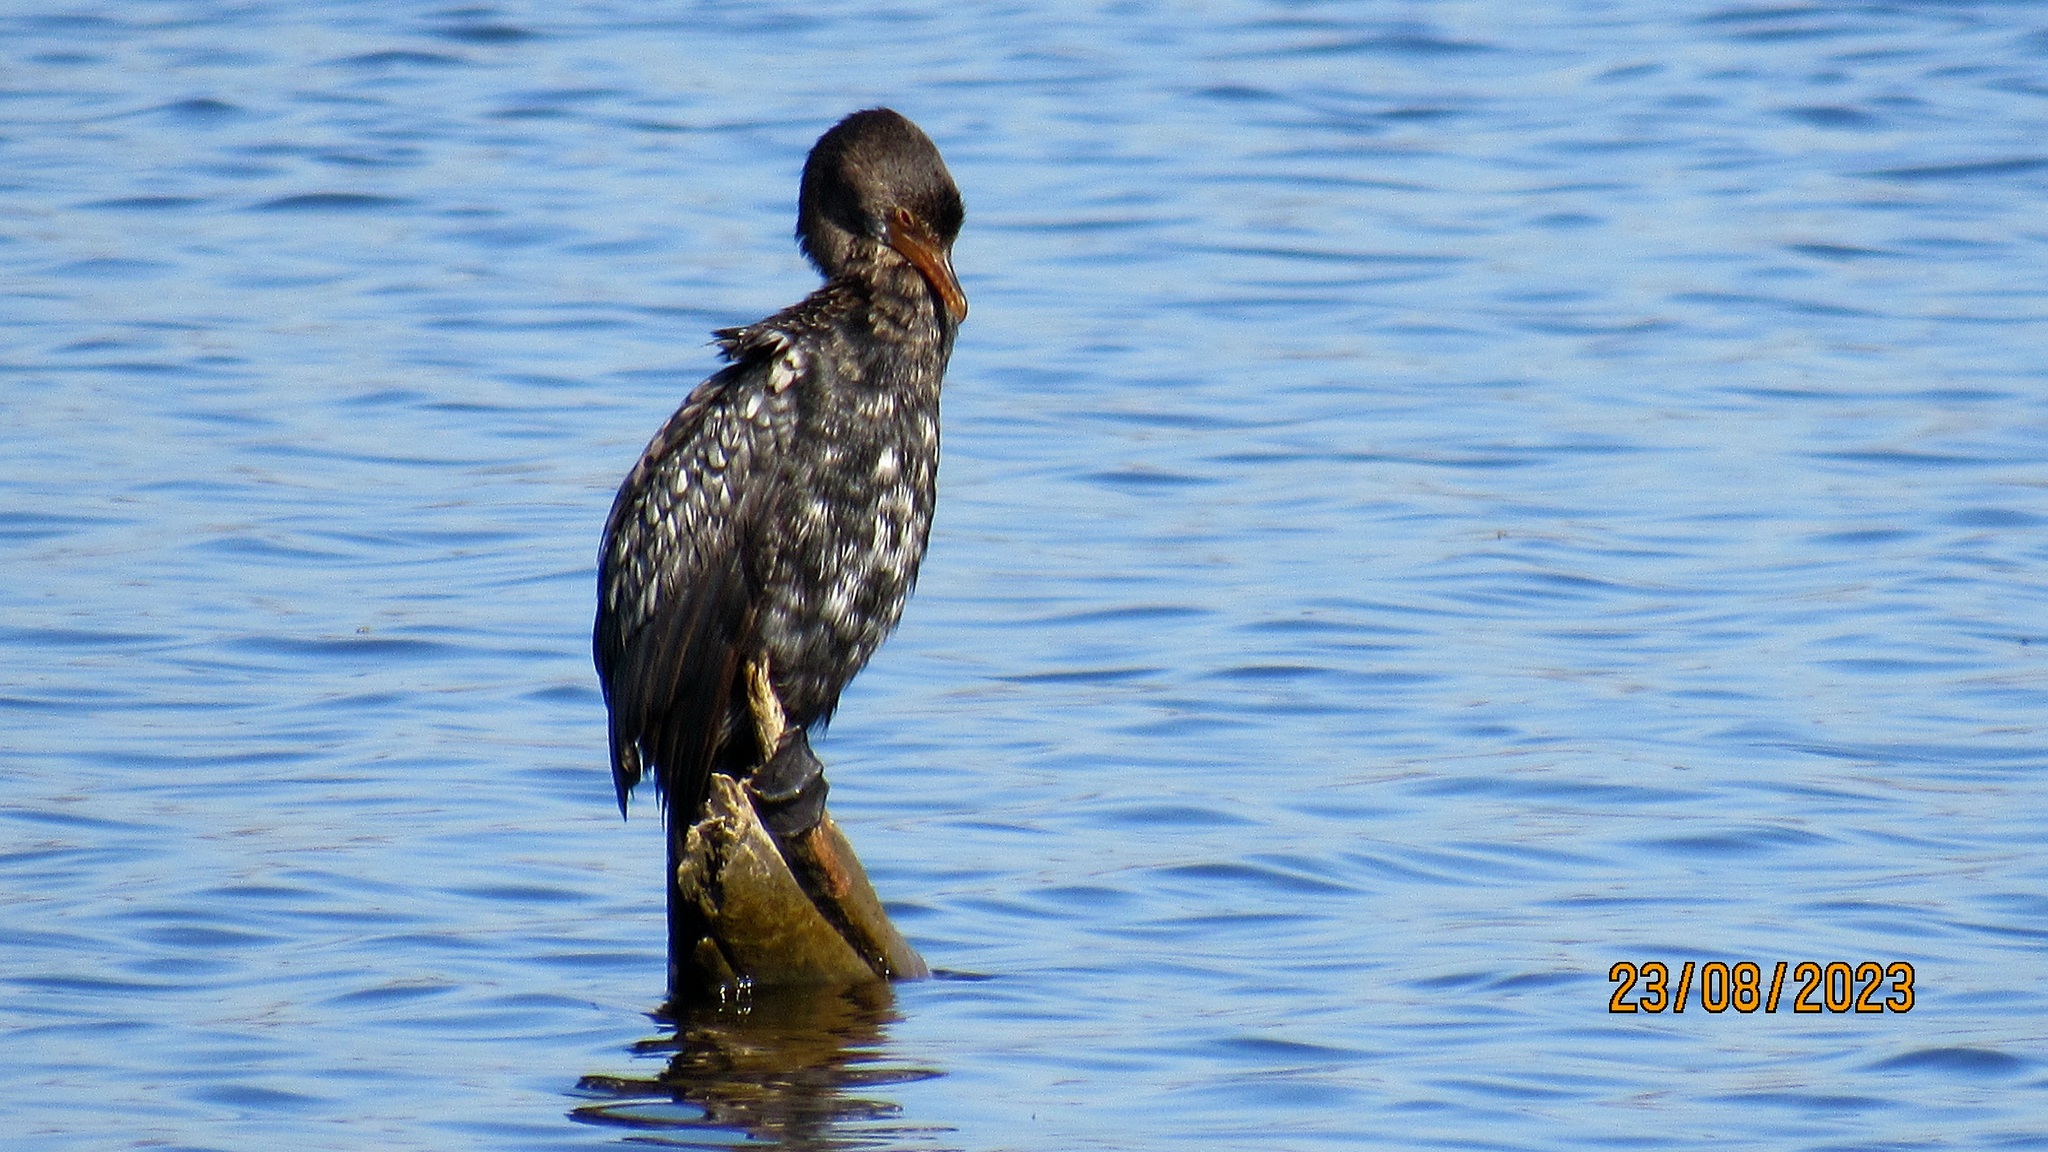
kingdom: Animalia
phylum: Chordata
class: Aves
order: Suliformes
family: Phalacrocoracidae
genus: Microcarbo
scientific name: Microcarbo africanus
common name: Long-tailed cormorant
